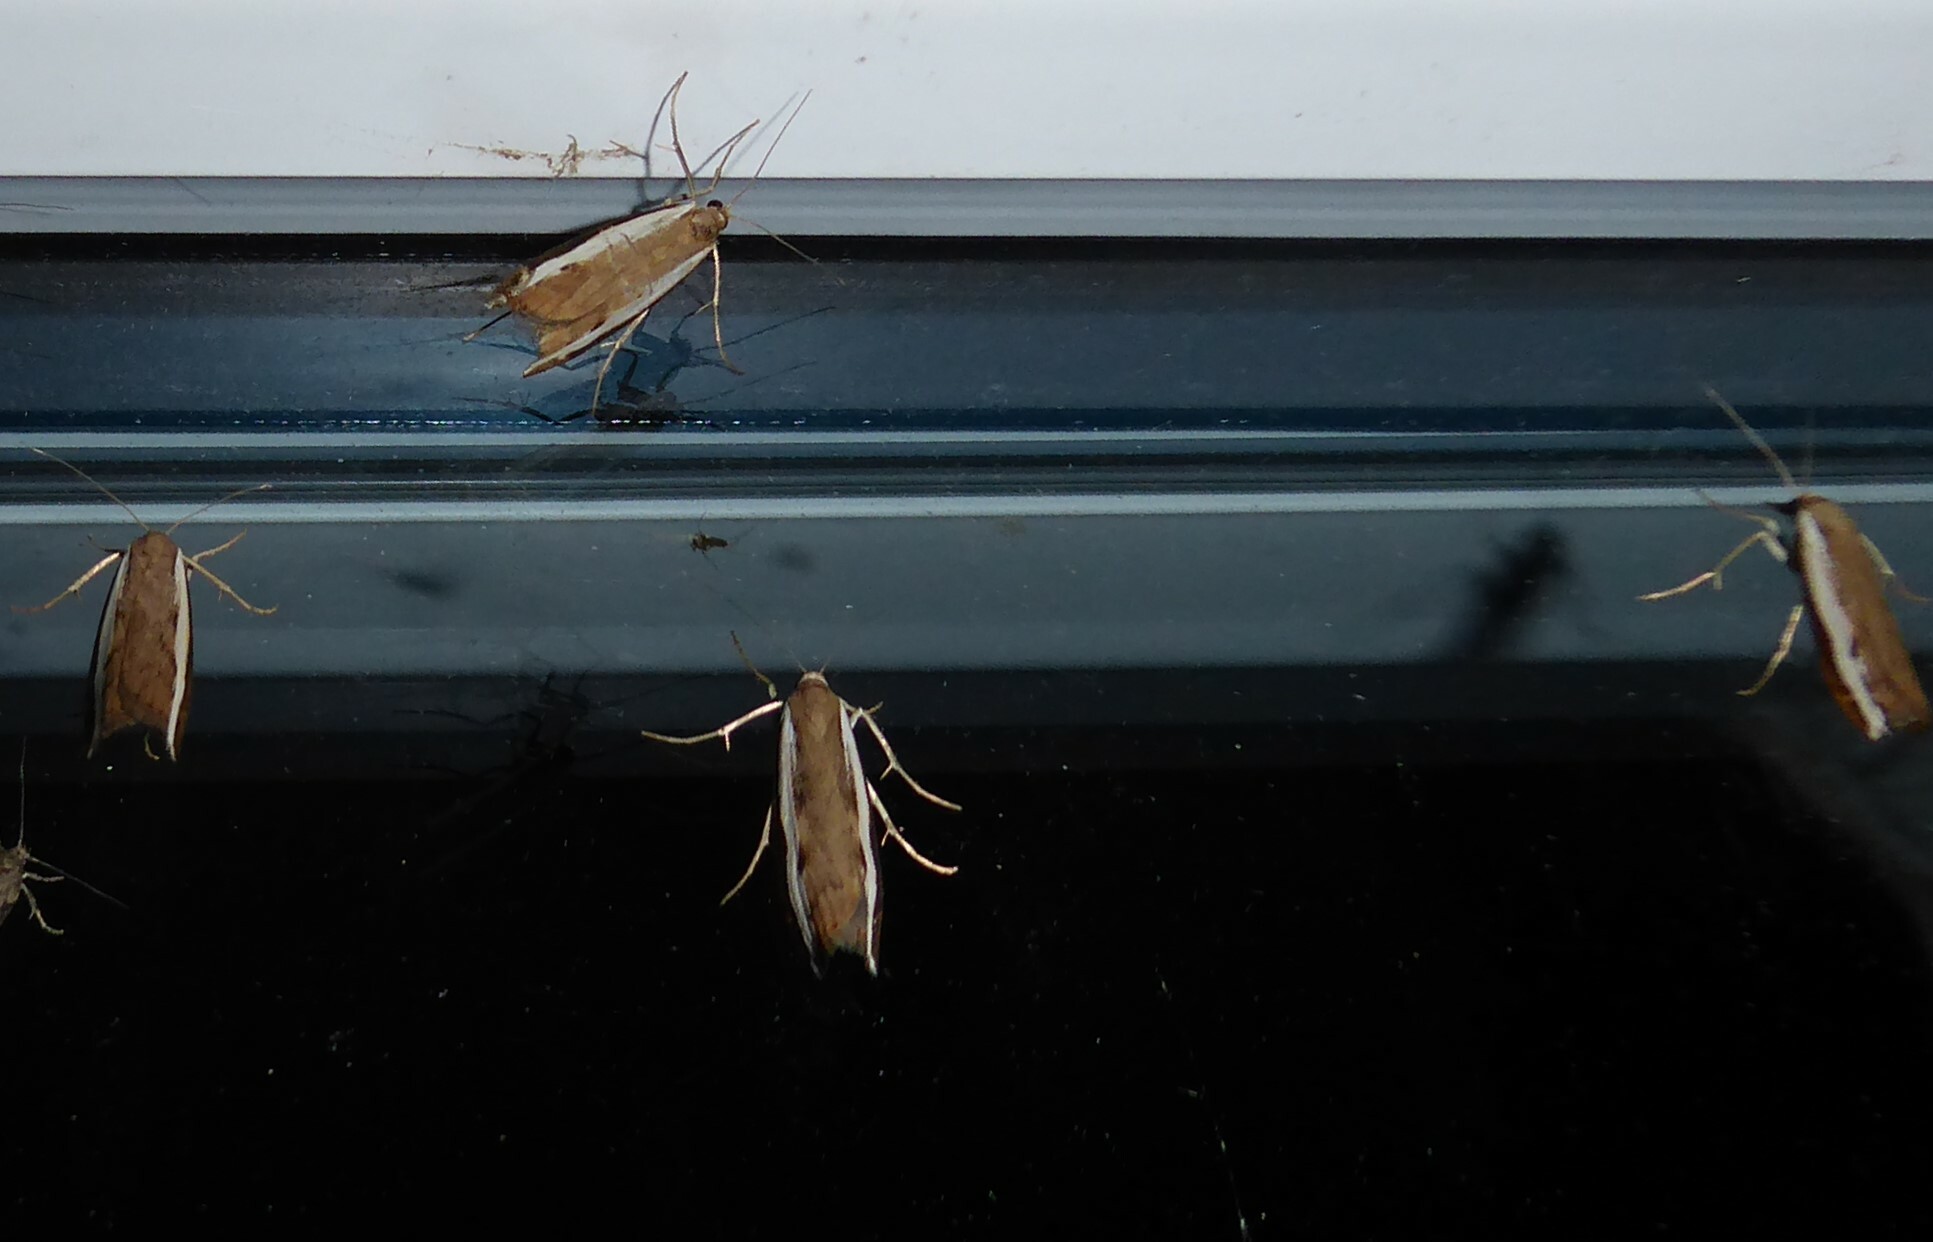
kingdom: Animalia
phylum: Arthropoda
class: Insecta
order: Lepidoptera
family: Crambidae
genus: Orocrambus
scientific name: Orocrambus flexuosellus
